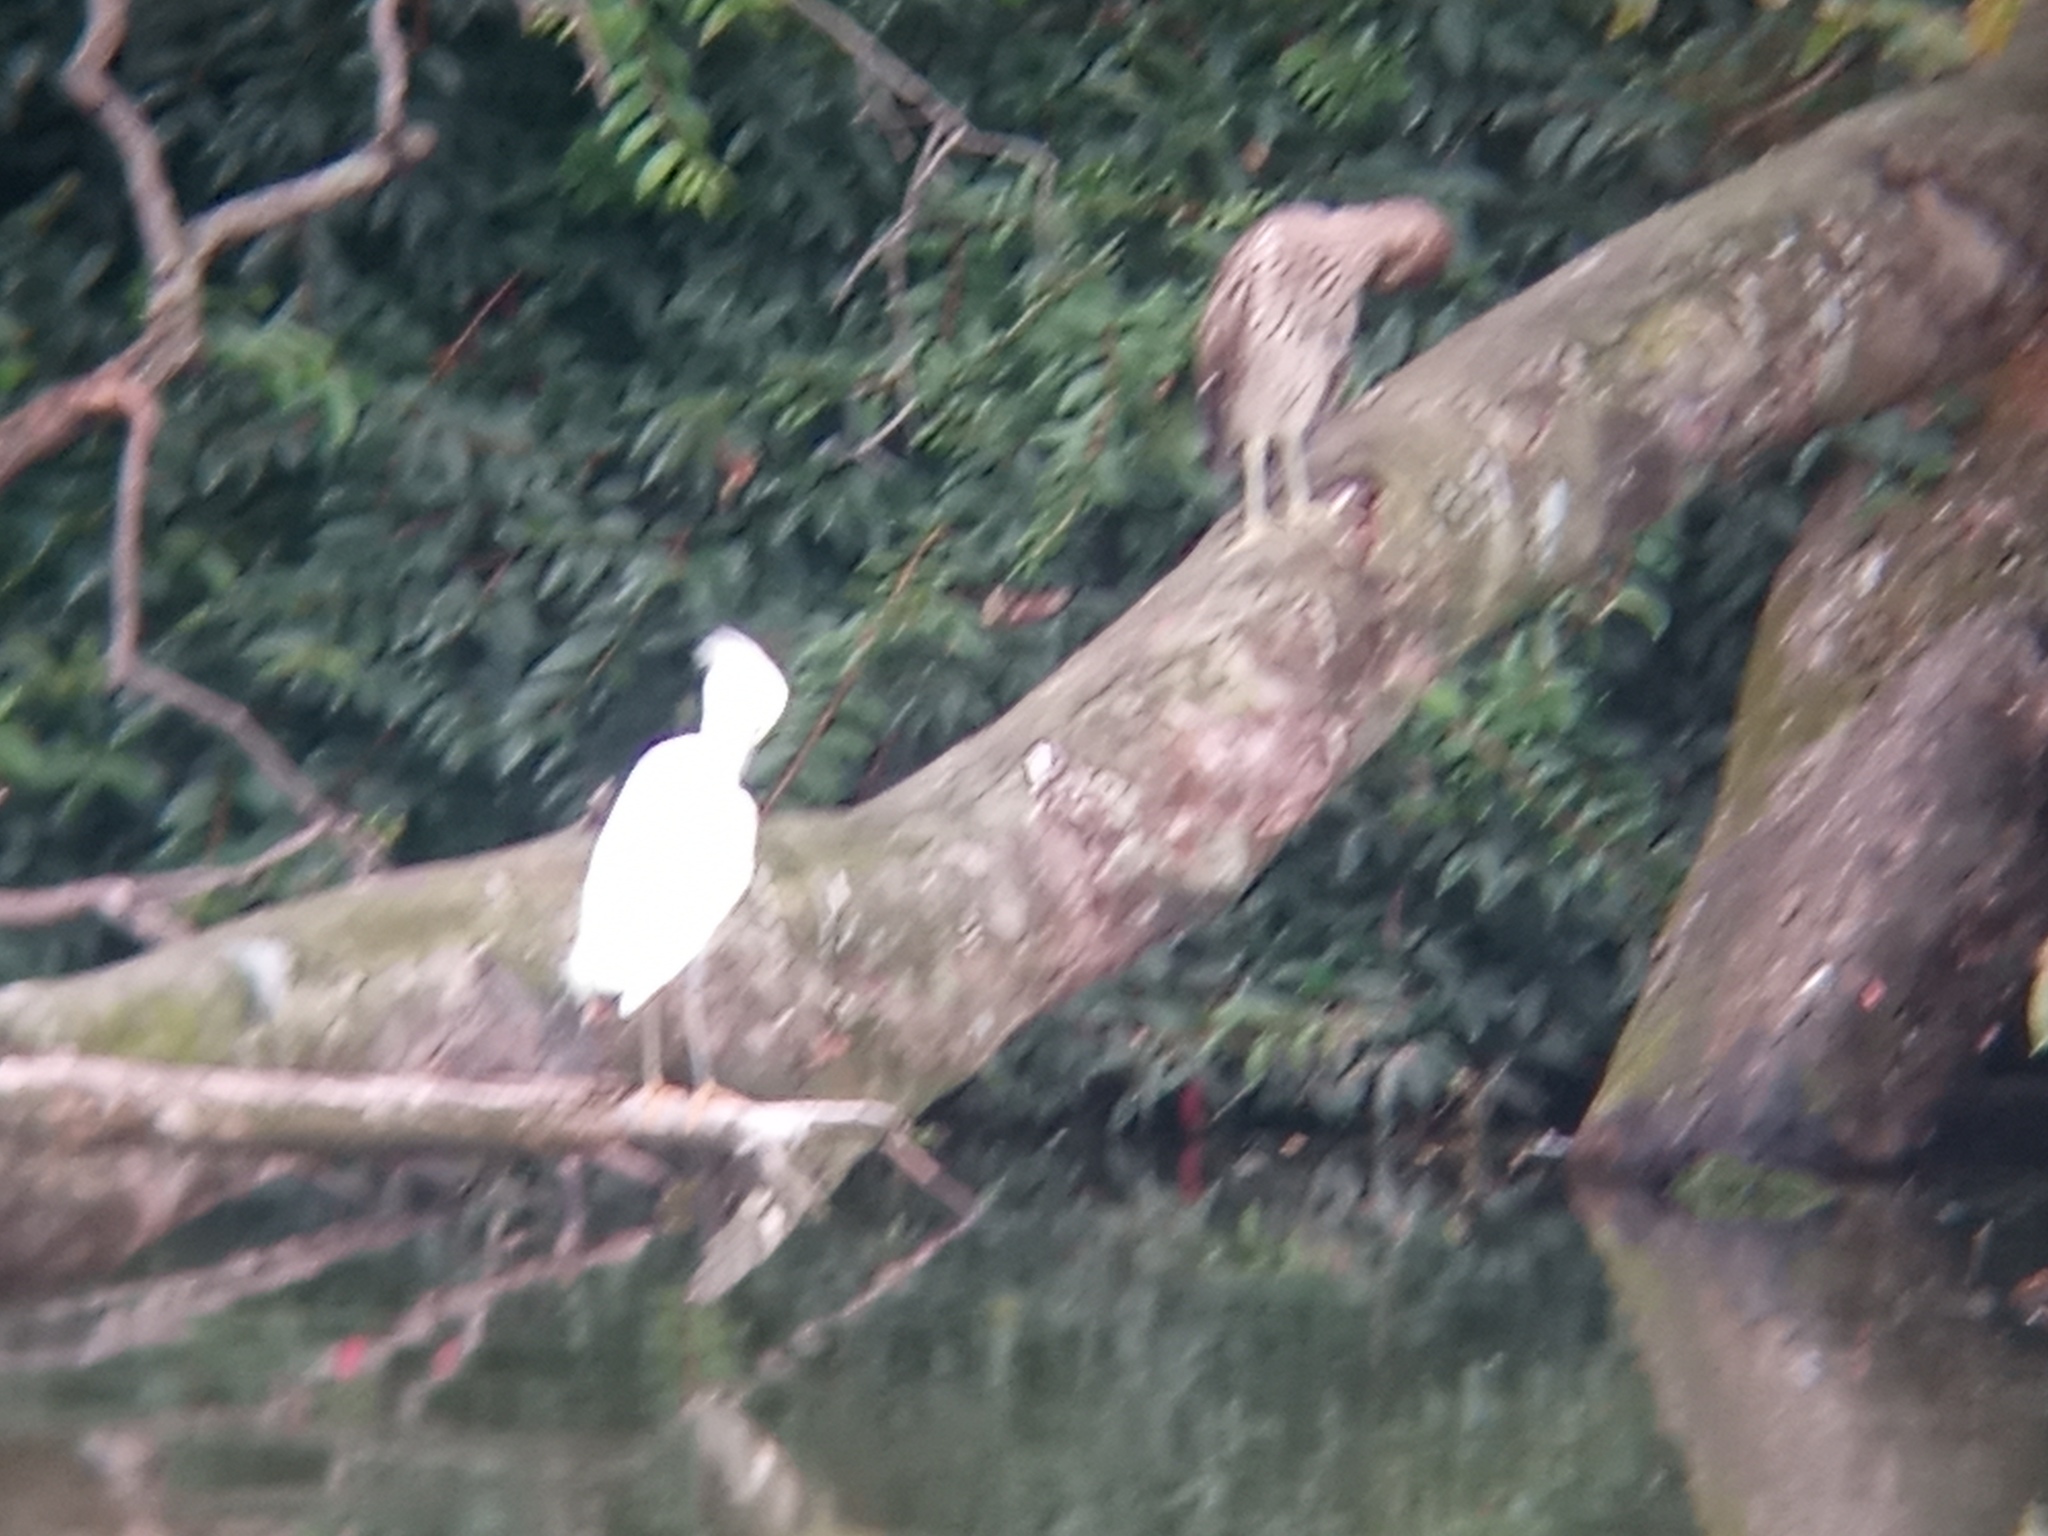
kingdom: Animalia
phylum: Chordata
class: Aves
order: Pelecaniformes
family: Ardeidae
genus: Egretta
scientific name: Egretta thula
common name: Snowy egret
